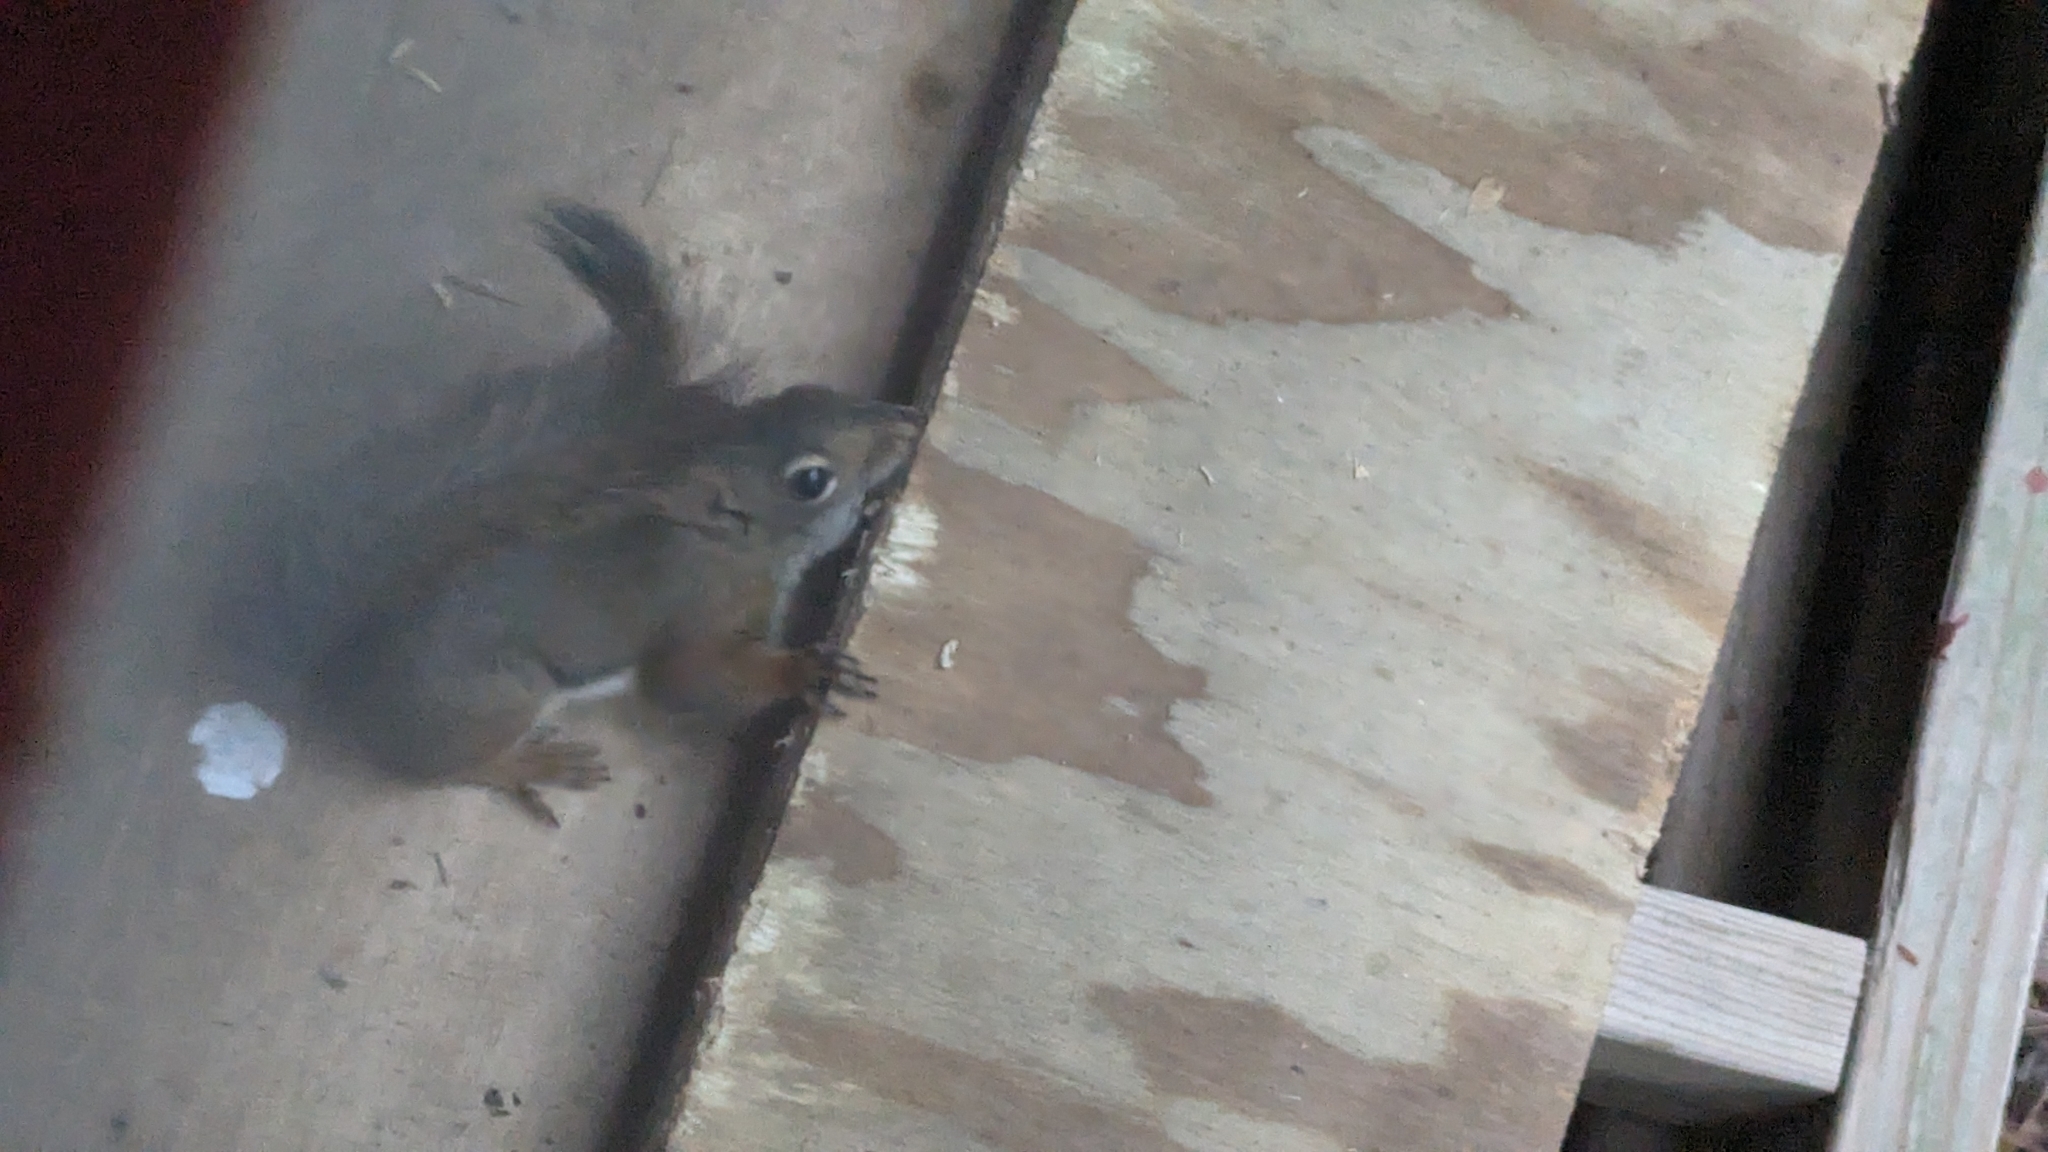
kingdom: Animalia
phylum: Chordata
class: Mammalia
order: Rodentia
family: Sciuridae
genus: Tamiasciurus
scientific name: Tamiasciurus hudsonicus
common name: Red squirrel
